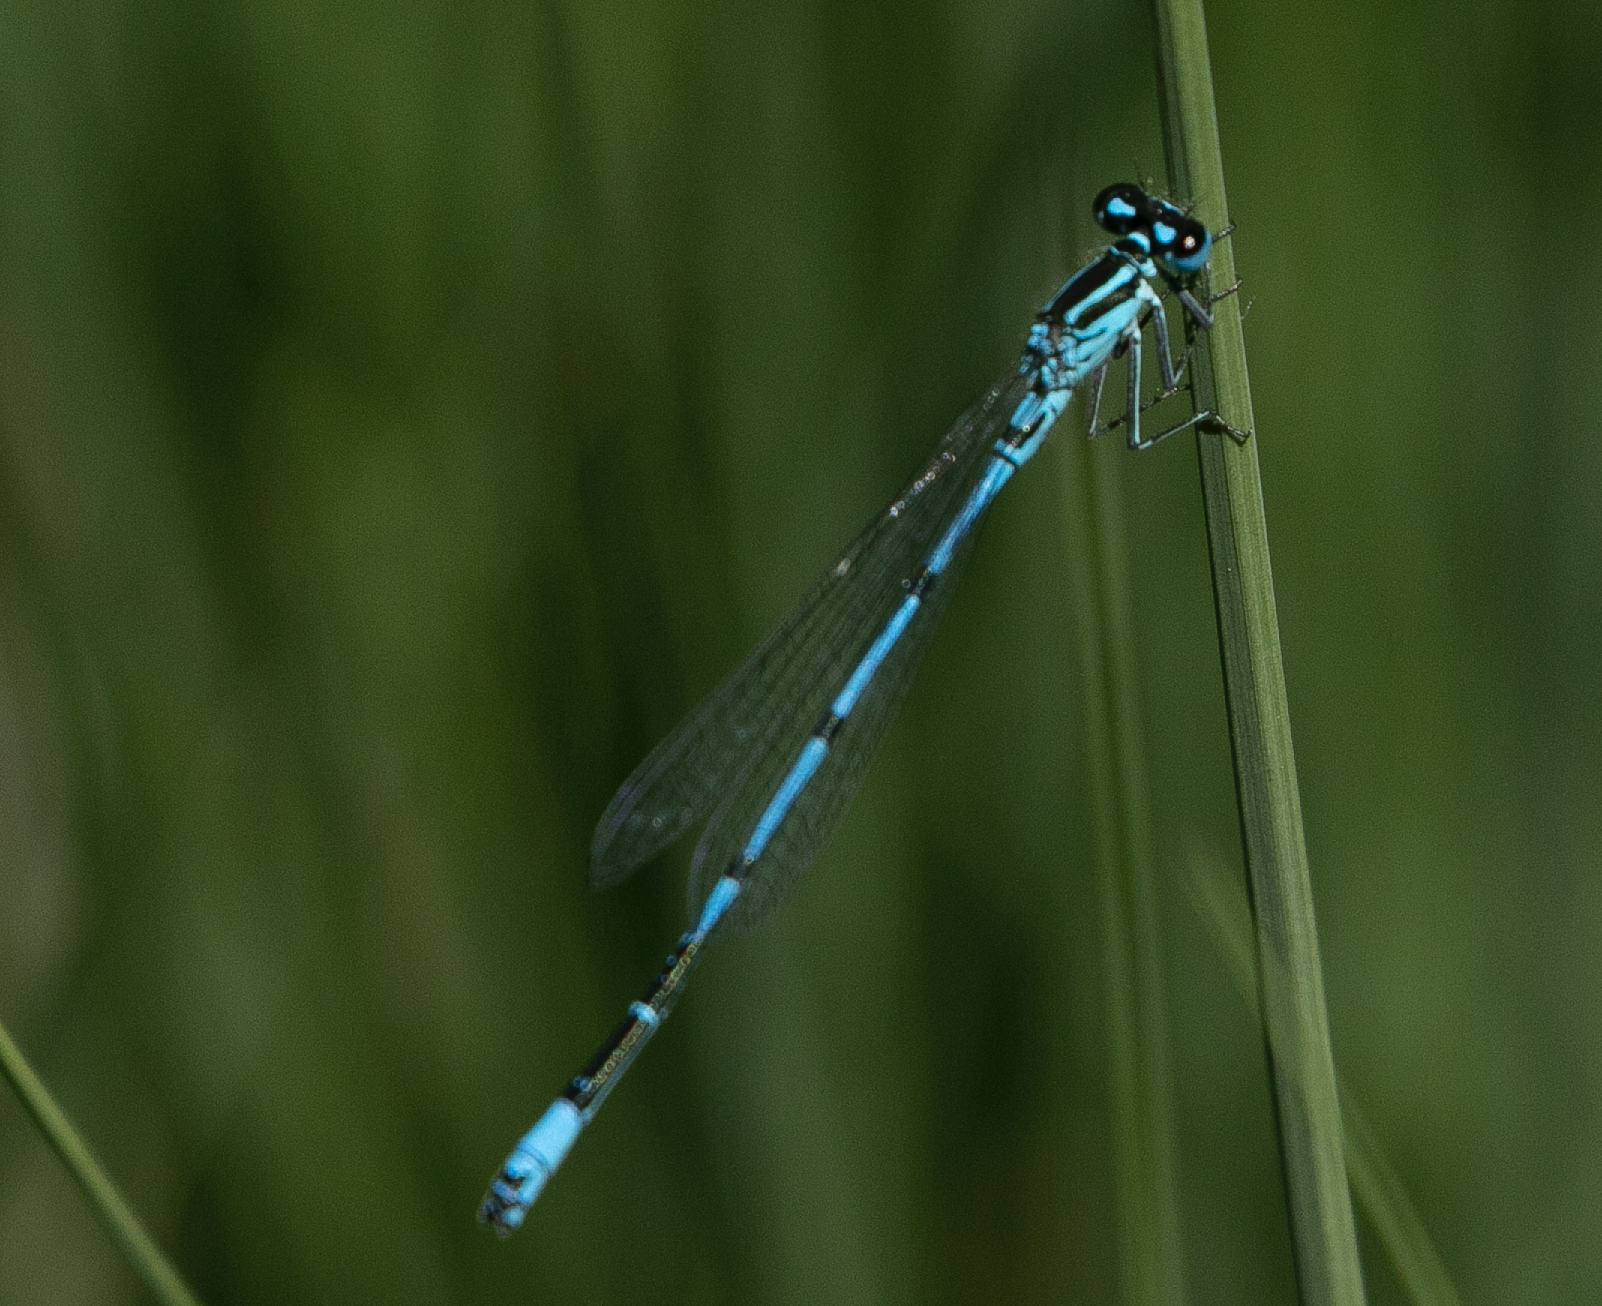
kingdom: Animalia
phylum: Arthropoda
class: Insecta
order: Odonata
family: Coenagrionidae
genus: Coenagrion
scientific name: Coenagrion puella
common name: Azure damselfly
